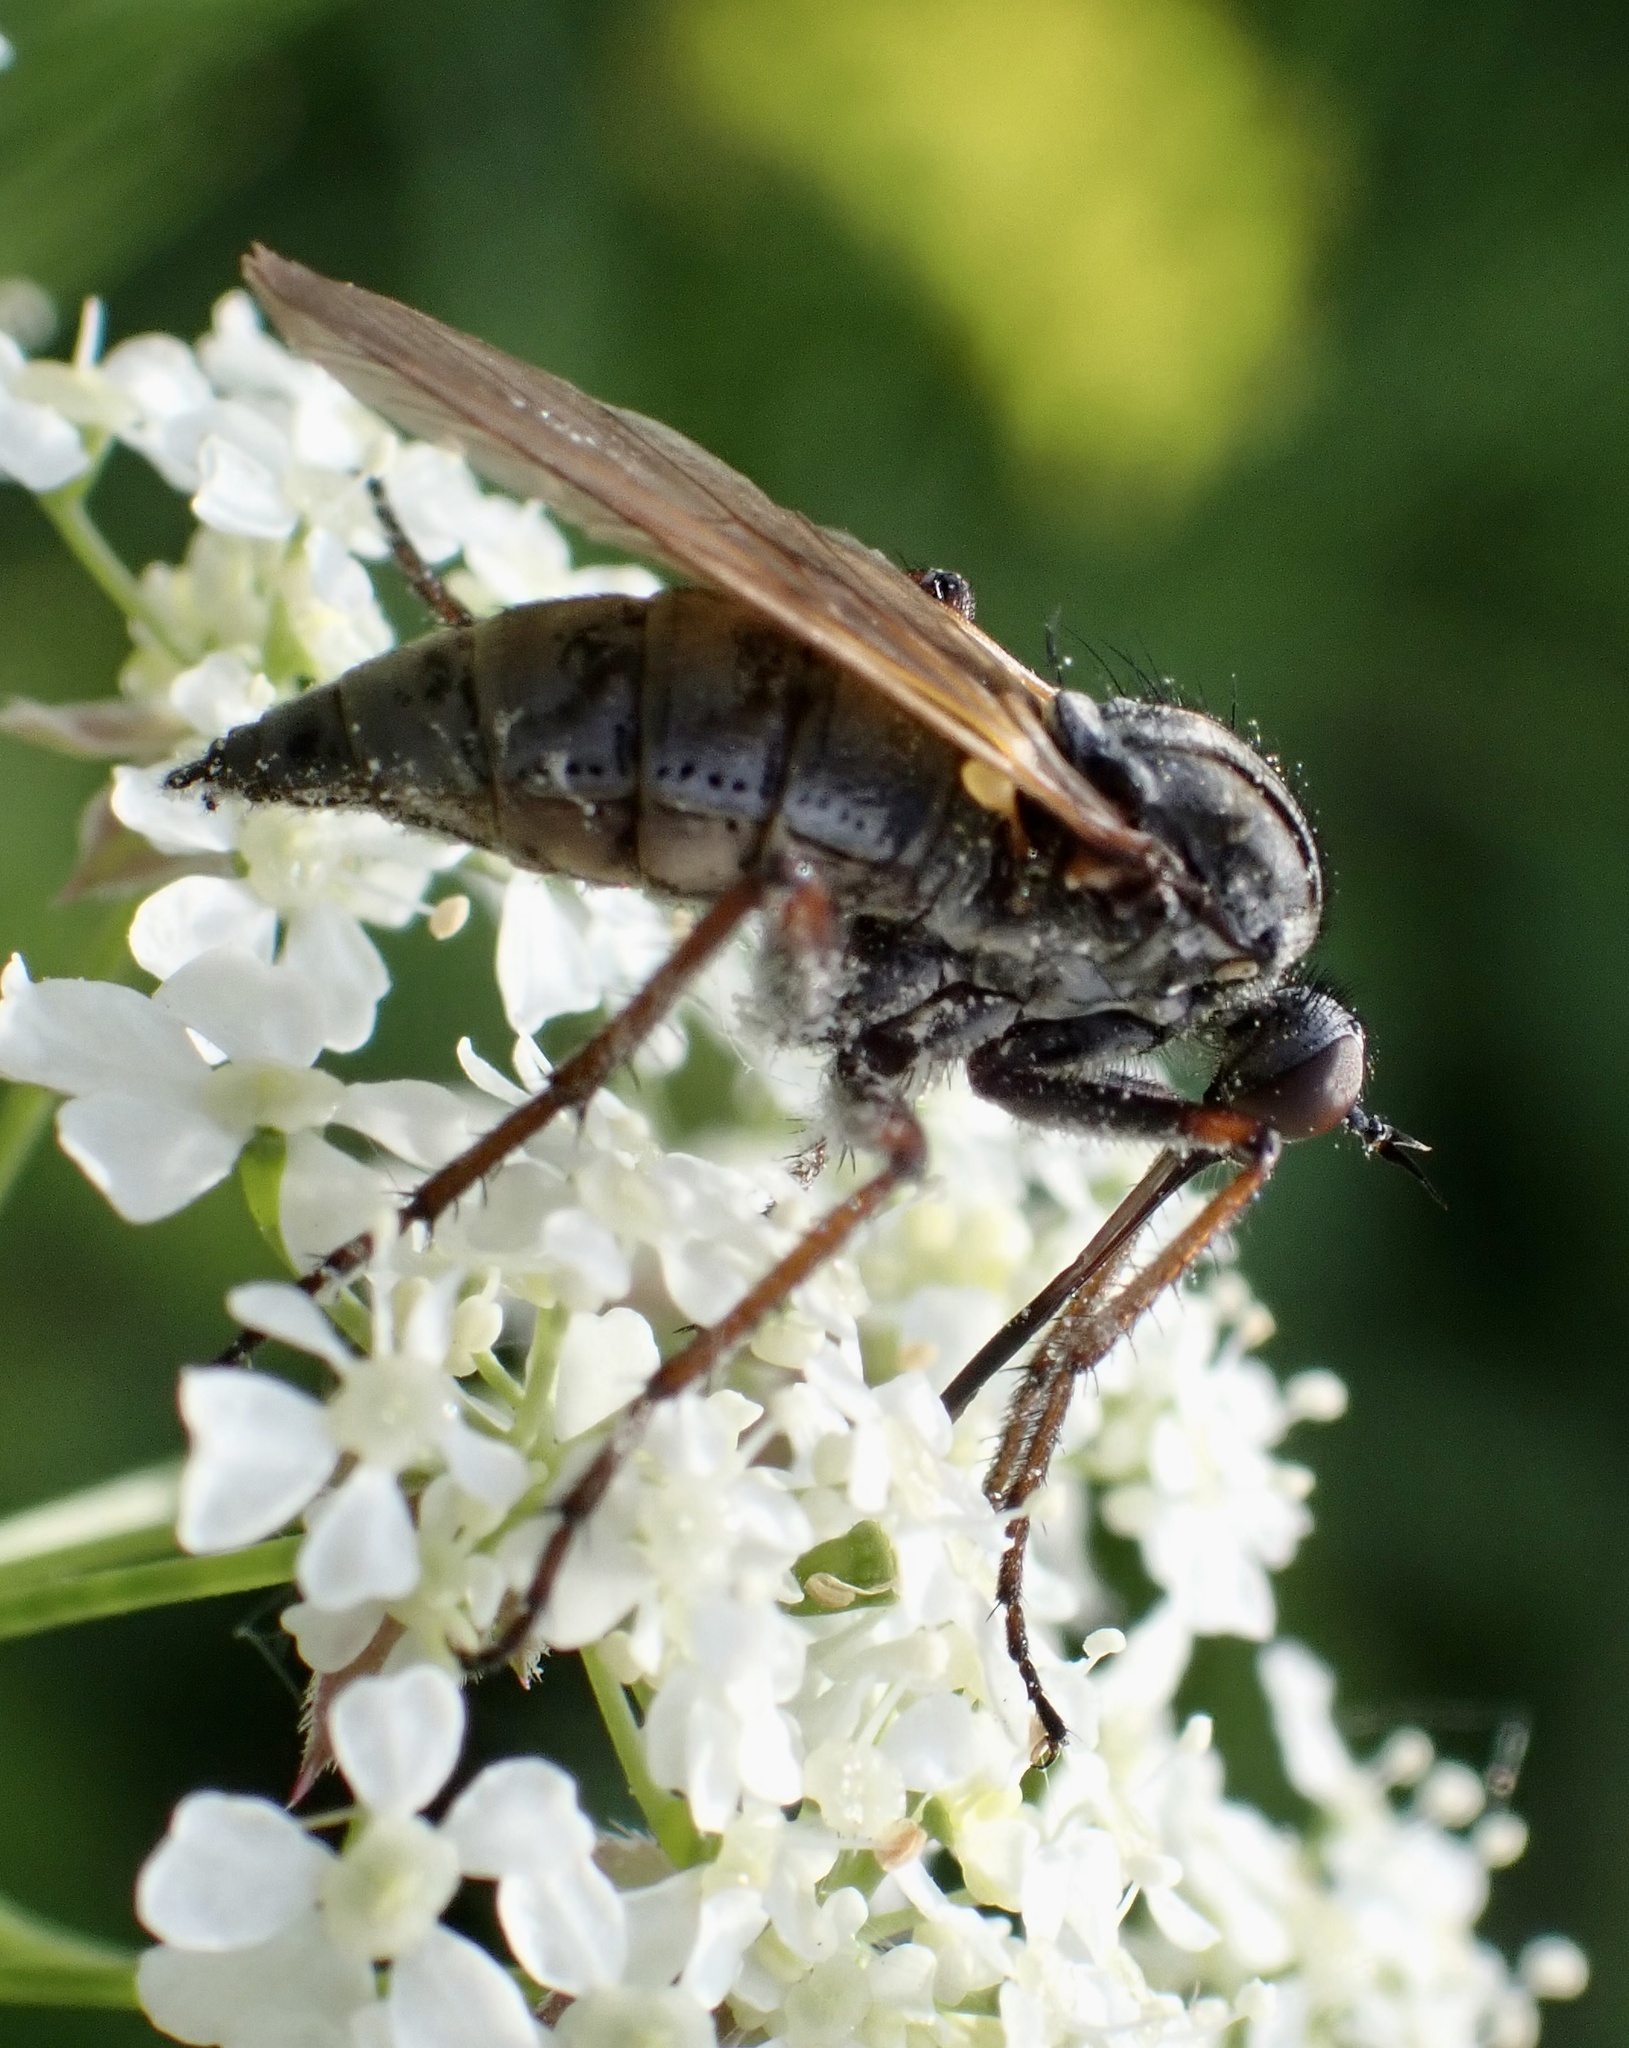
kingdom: Animalia
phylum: Arthropoda
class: Insecta
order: Diptera
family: Empididae
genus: Empis
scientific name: Empis tessellata
